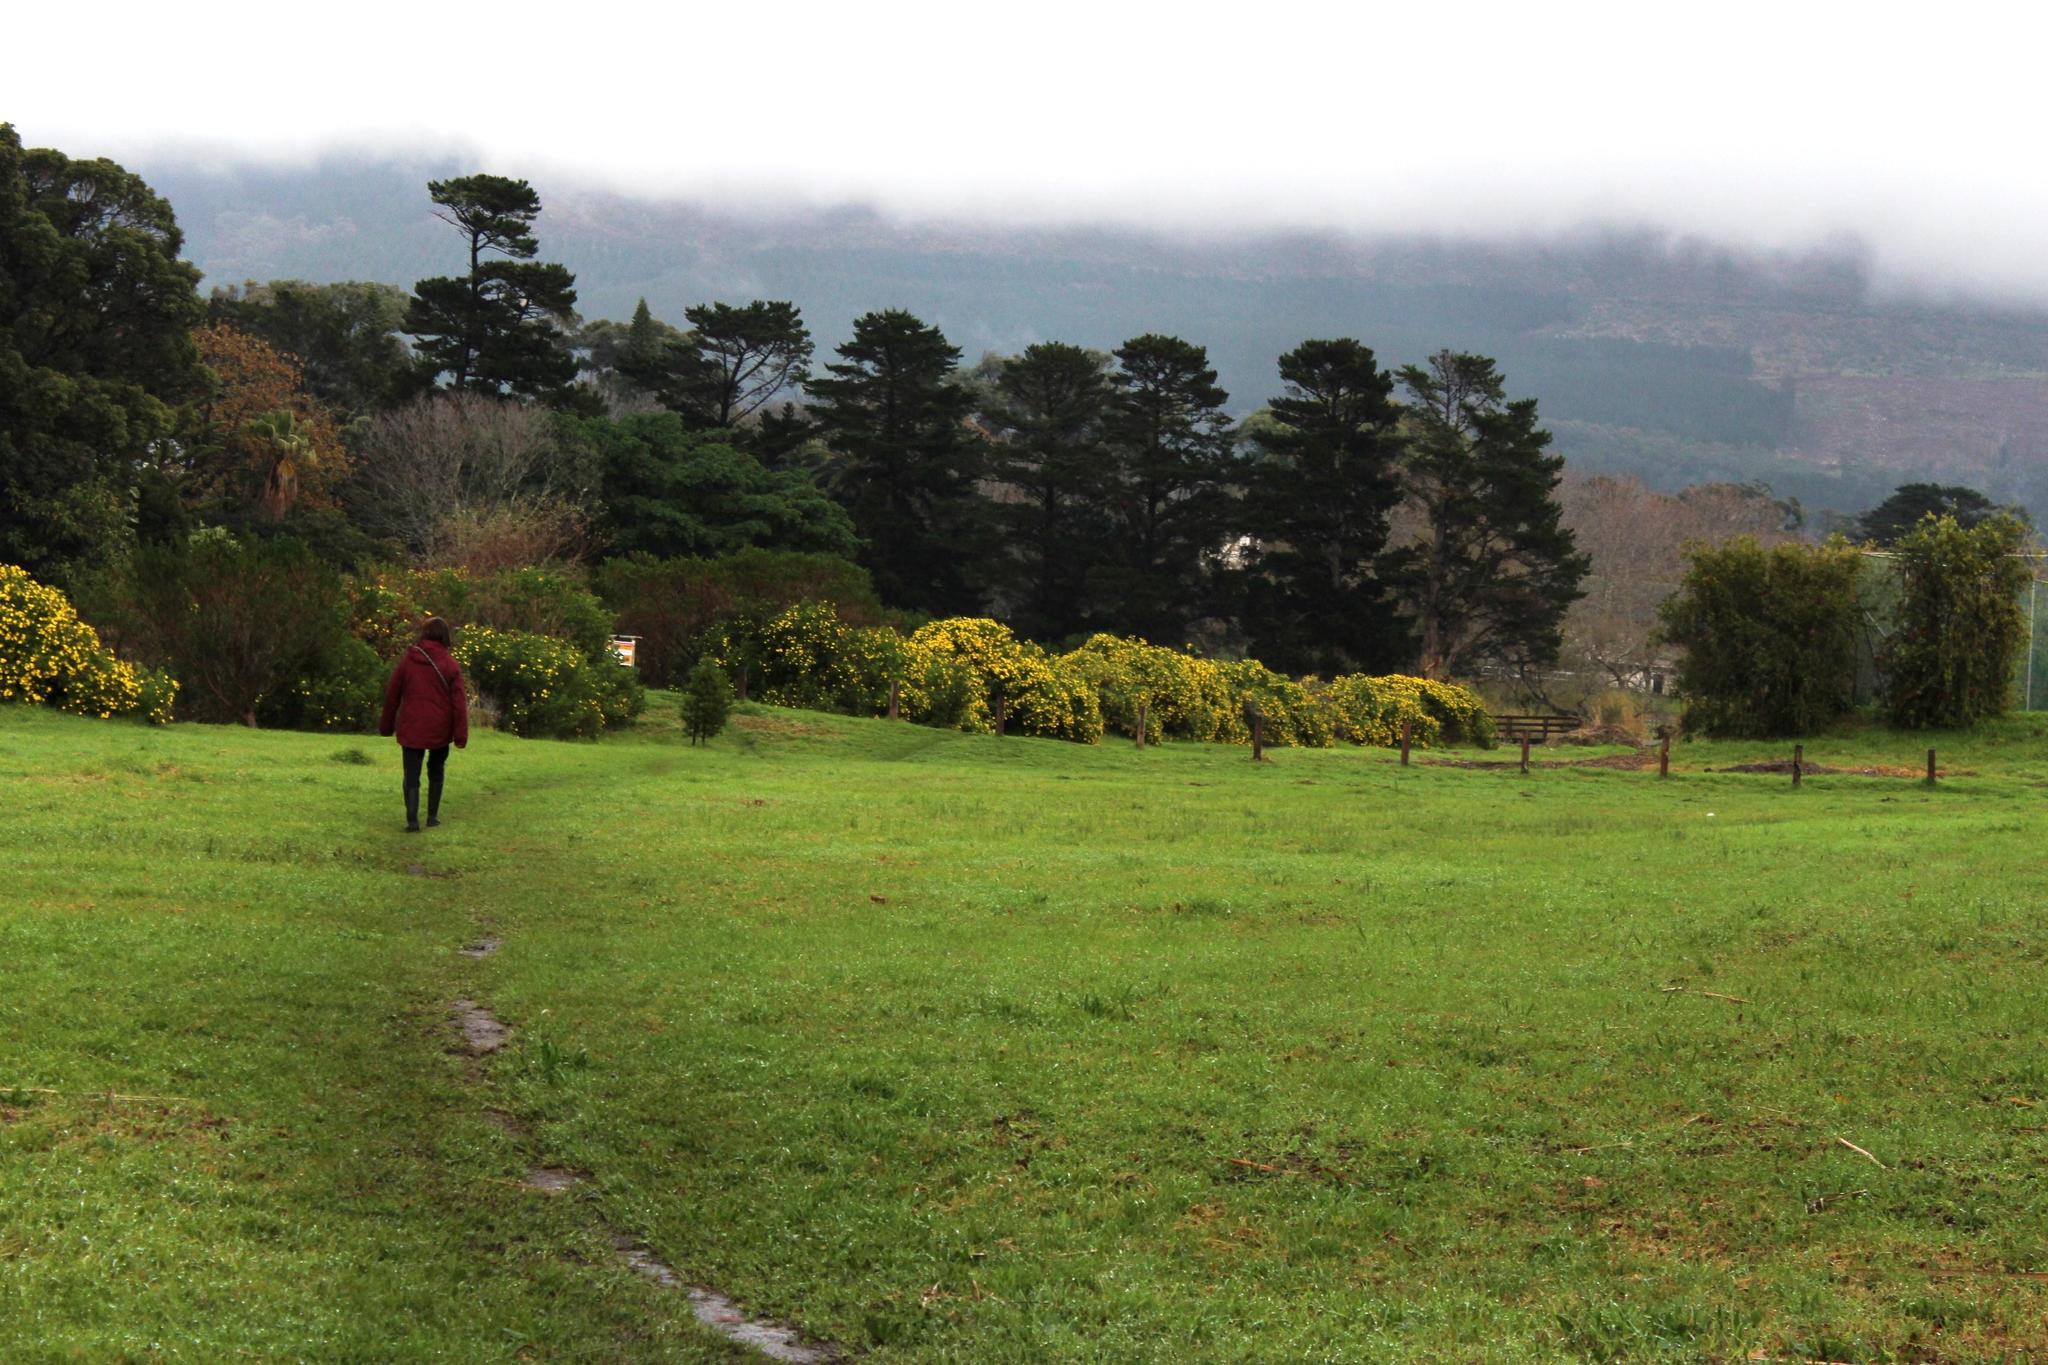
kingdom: Plantae
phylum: Tracheophyta
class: Magnoliopsida
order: Asterales
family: Asteraceae
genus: Osteospermum
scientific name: Osteospermum moniliferum
